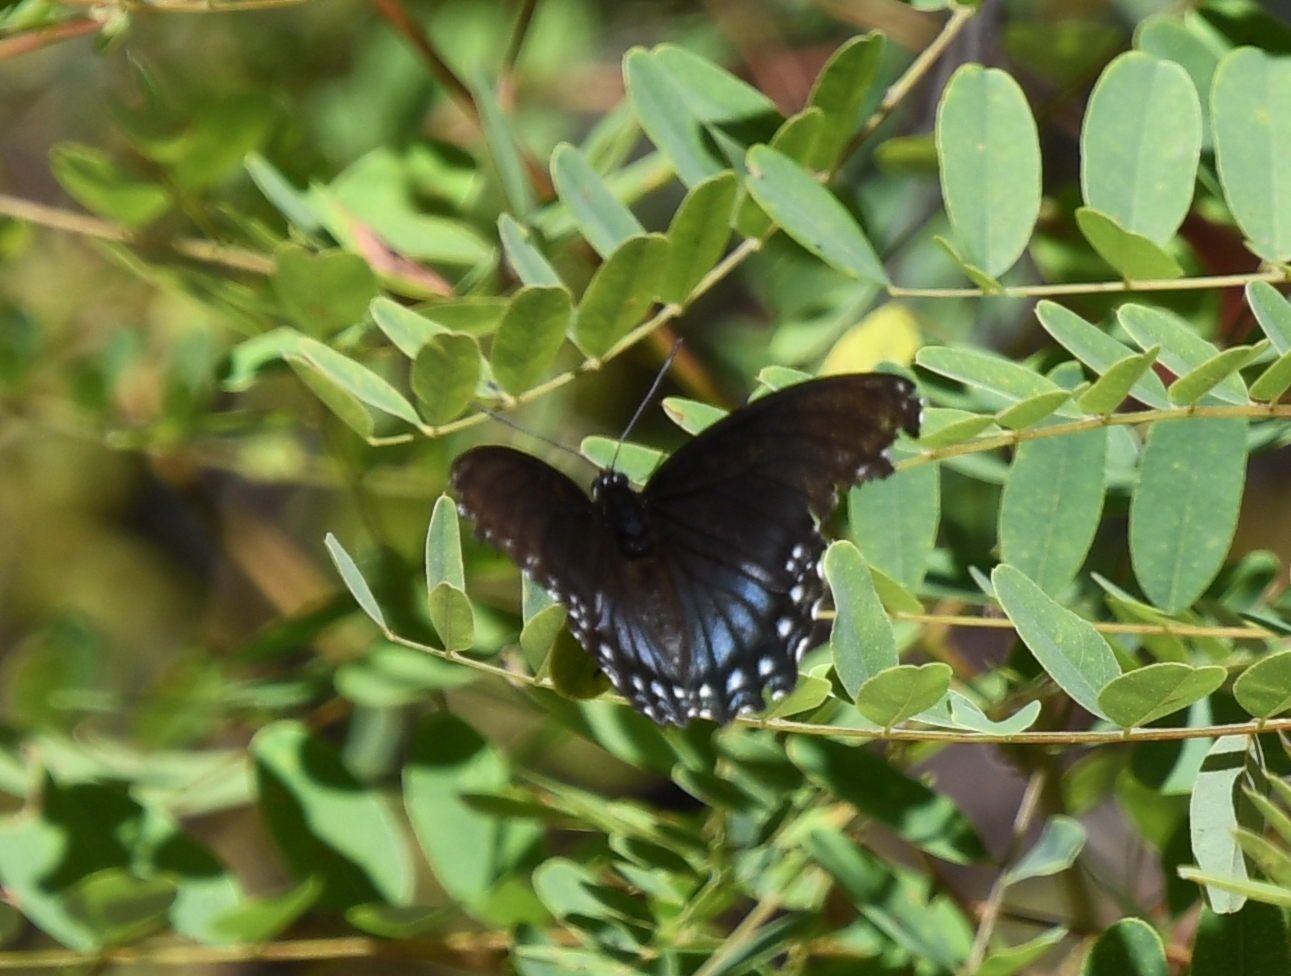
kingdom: Animalia
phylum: Arthropoda
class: Insecta
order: Lepidoptera
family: Nymphalidae
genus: Limenitis
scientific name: Limenitis arthemis
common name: Red-spotted admiral
